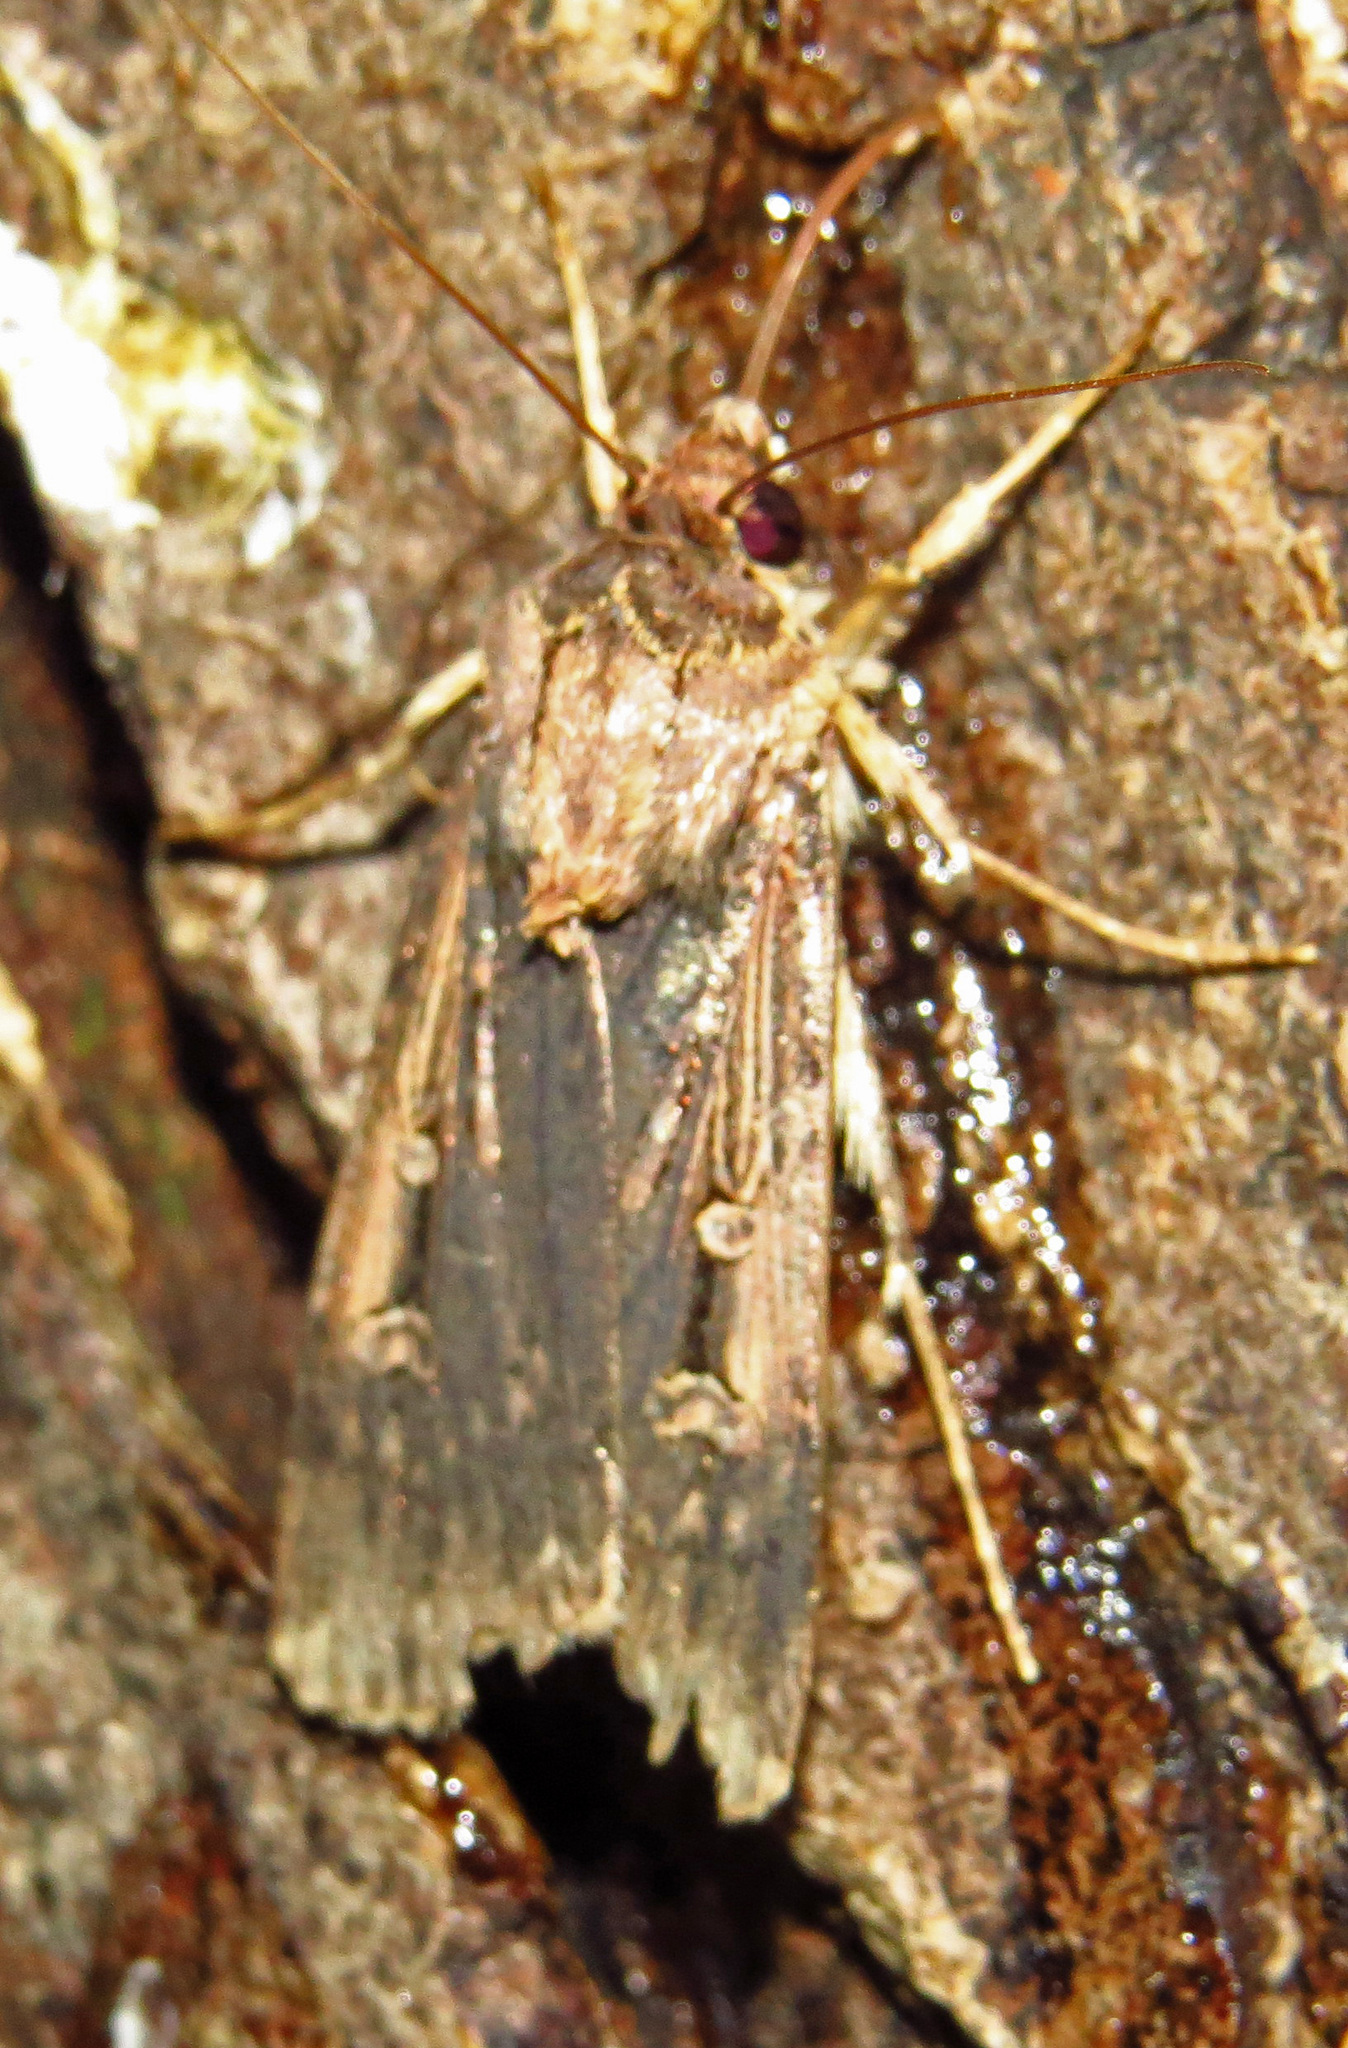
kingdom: Animalia
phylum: Arthropoda
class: Insecta
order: Lepidoptera
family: Noctuidae
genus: Feltia
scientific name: Feltia subterranea
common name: Granulate cutworm
